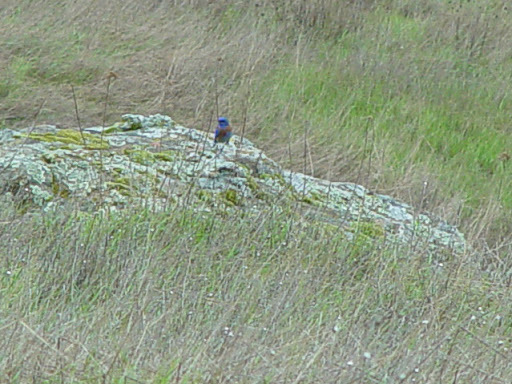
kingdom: Animalia
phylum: Chordata
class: Aves
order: Passeriformes
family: Turdidae
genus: Sialia
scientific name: Sialia mexicana
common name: Western bluebird
